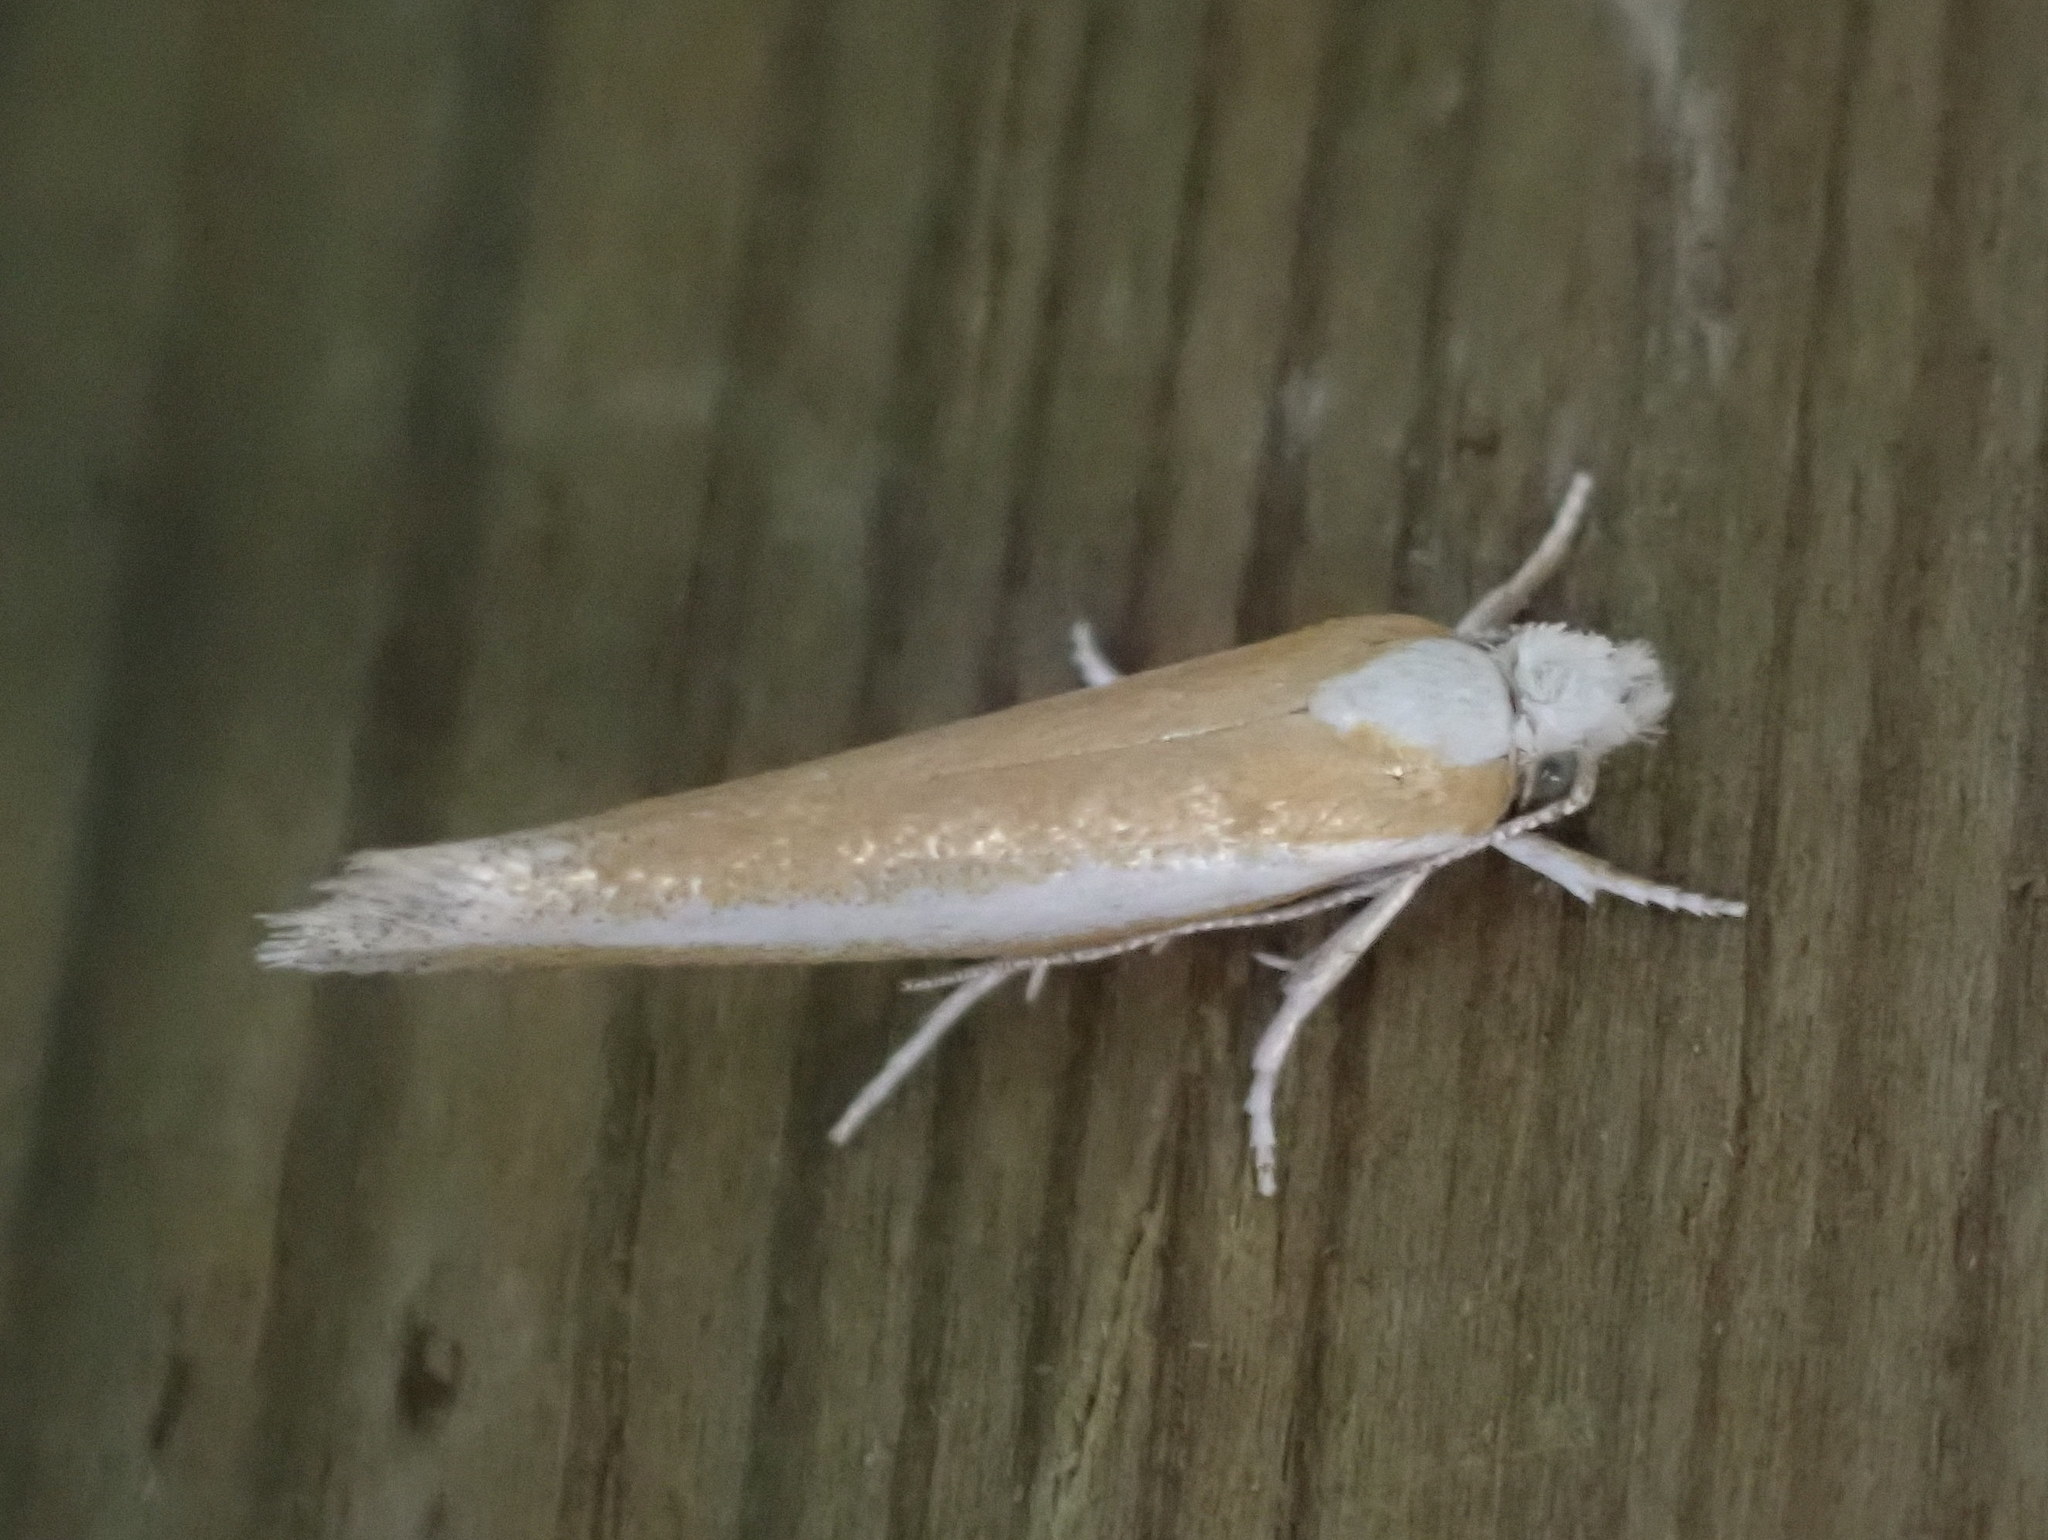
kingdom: Animalia
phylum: Arthropoda
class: Insecta
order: Lepidoptera
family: Yponomeutidae
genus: Zelleria
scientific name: Zelleria haimbachi
